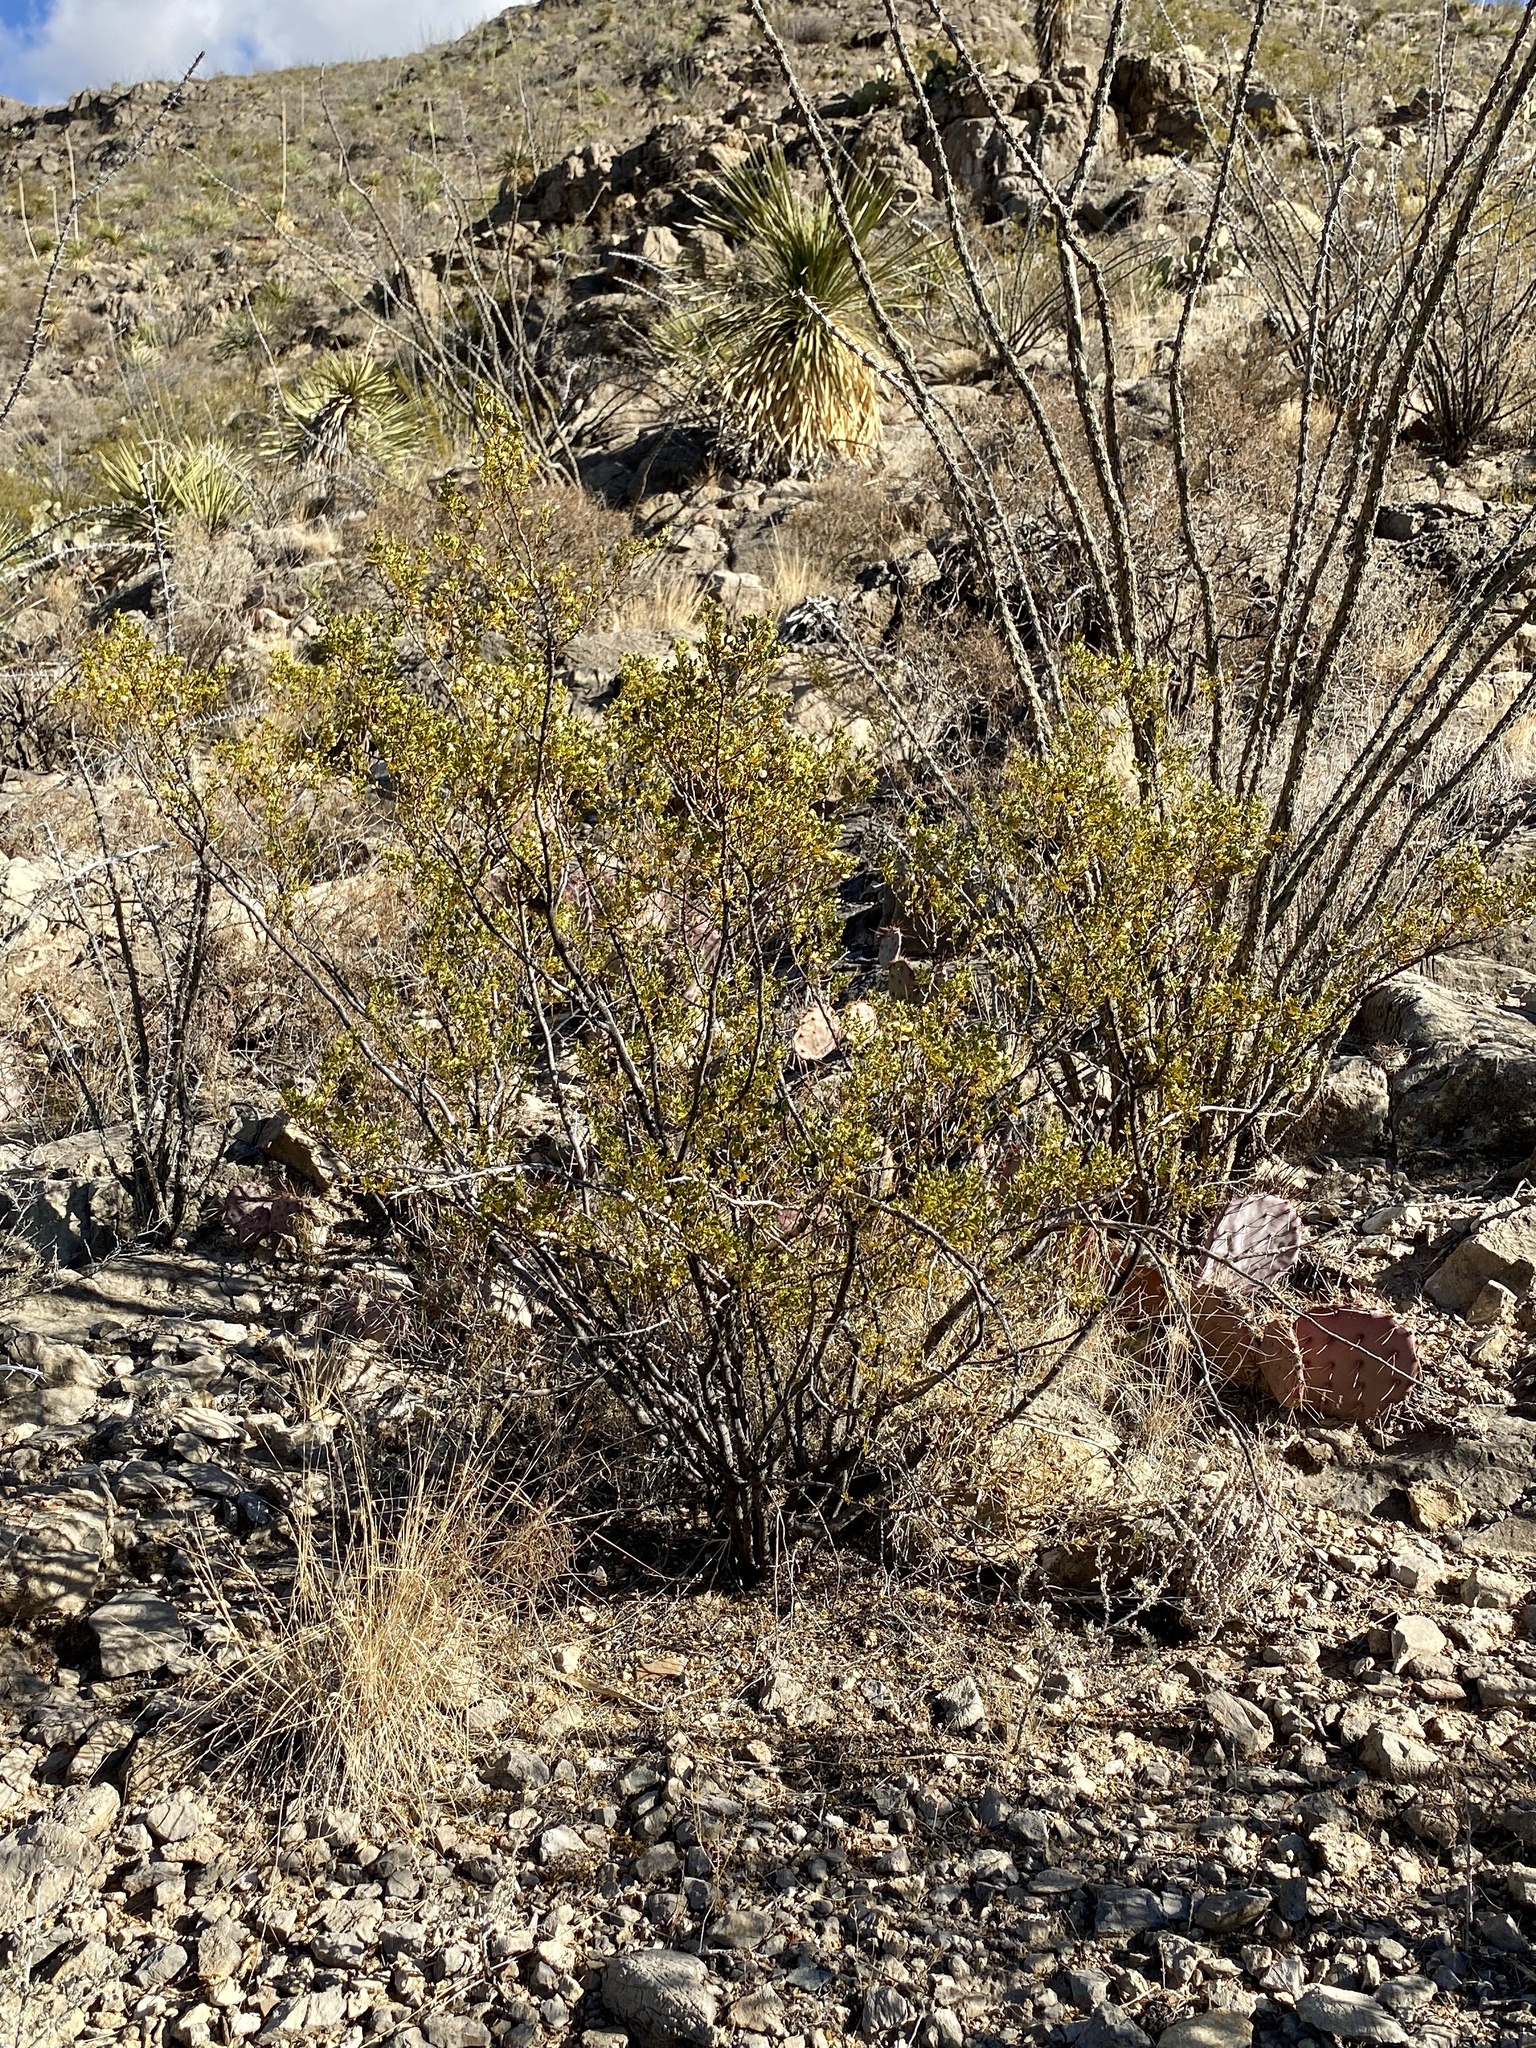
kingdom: Plantae
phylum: Tracheophyta
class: Magnoliopsida
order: Zygophyllales
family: Zygophyllaceae
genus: Larrea
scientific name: Larrea tridentata
